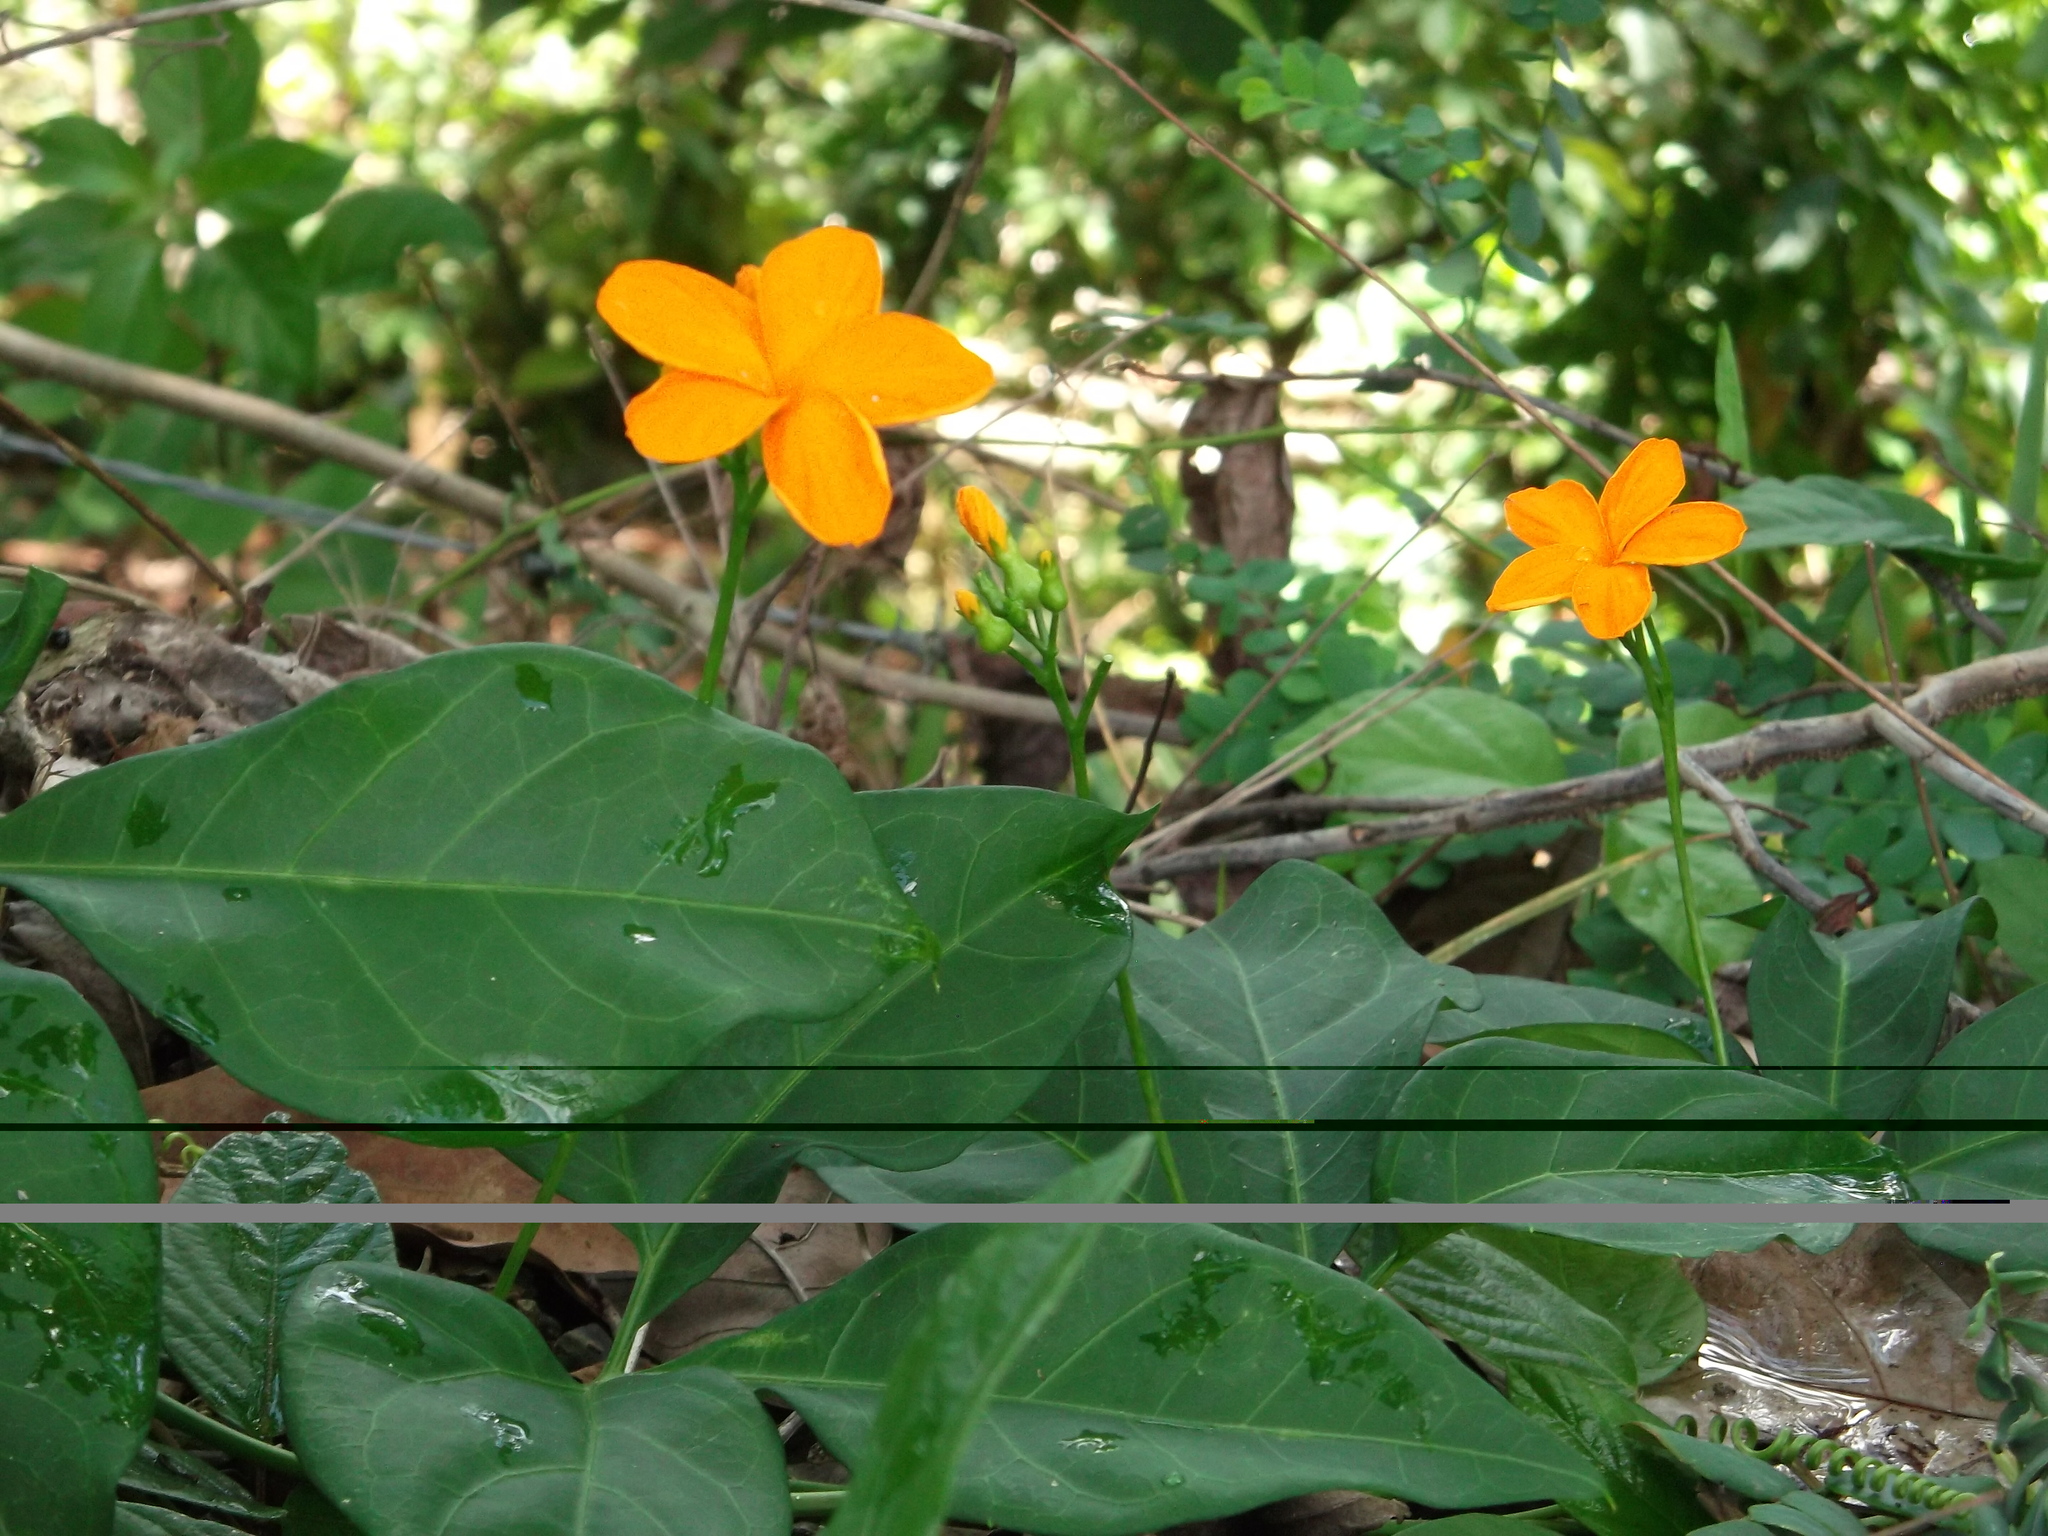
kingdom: Plantae
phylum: Tracheophyta
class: Magnoliopsida
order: Cucurbitales
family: Cucurbitaceae
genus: Psiguria
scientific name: Psiguria pedata
